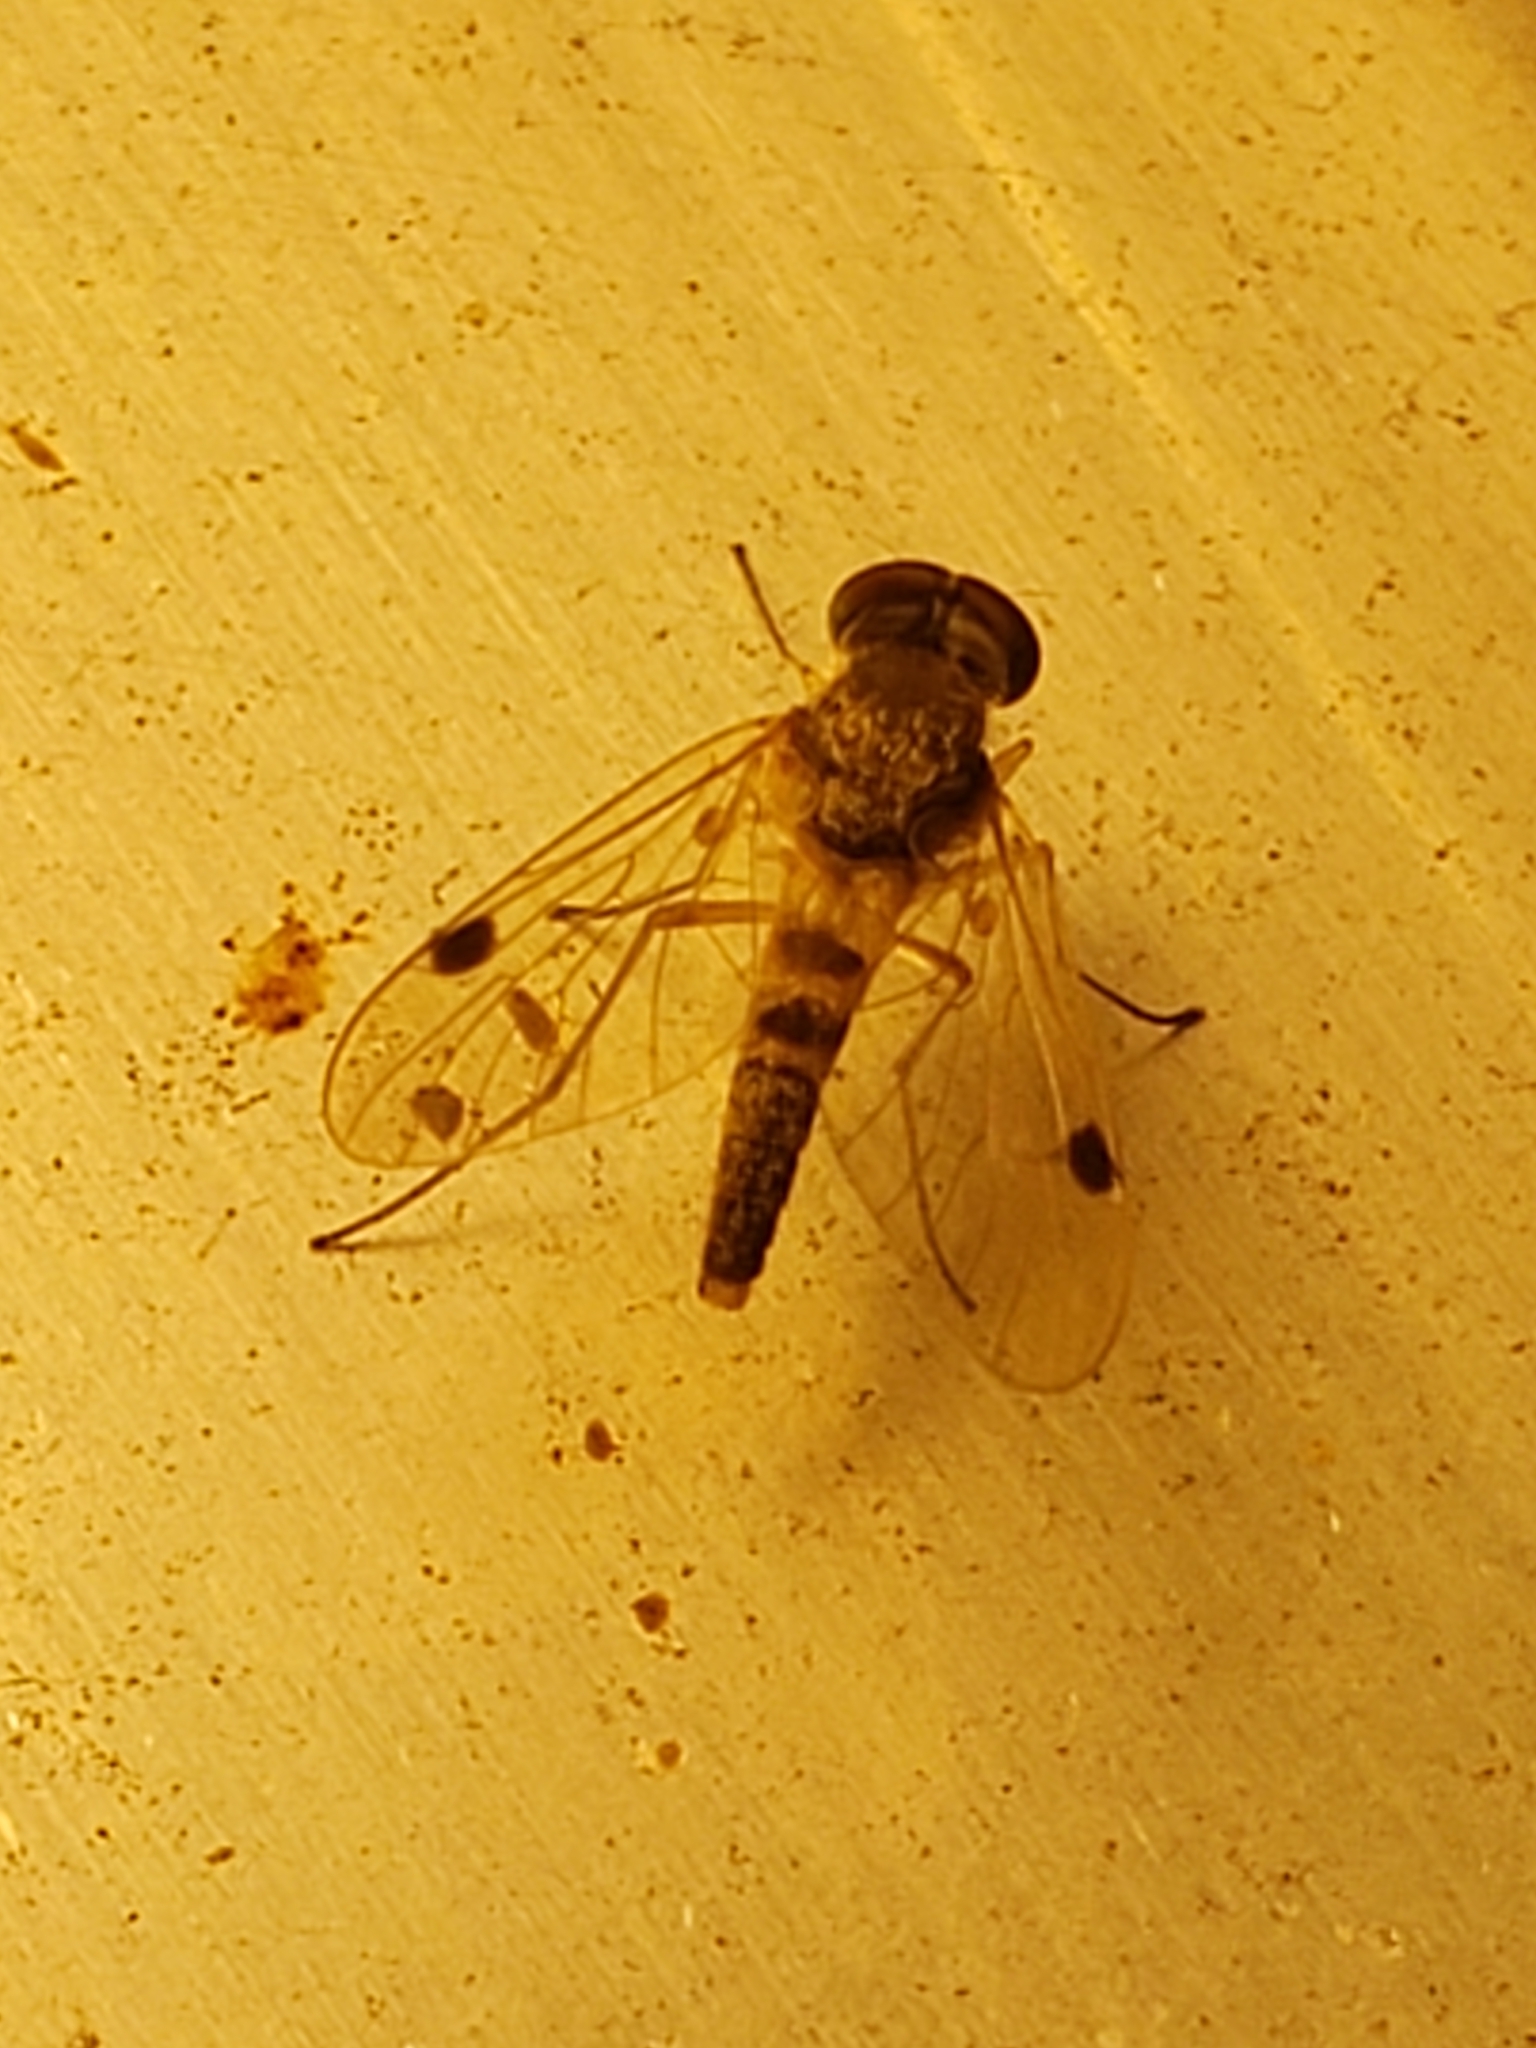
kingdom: Animalia
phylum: Arthropoda
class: Insecta
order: Diptera
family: Rhagionidae
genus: Chrysopilus
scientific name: Chrysopilus modestus
